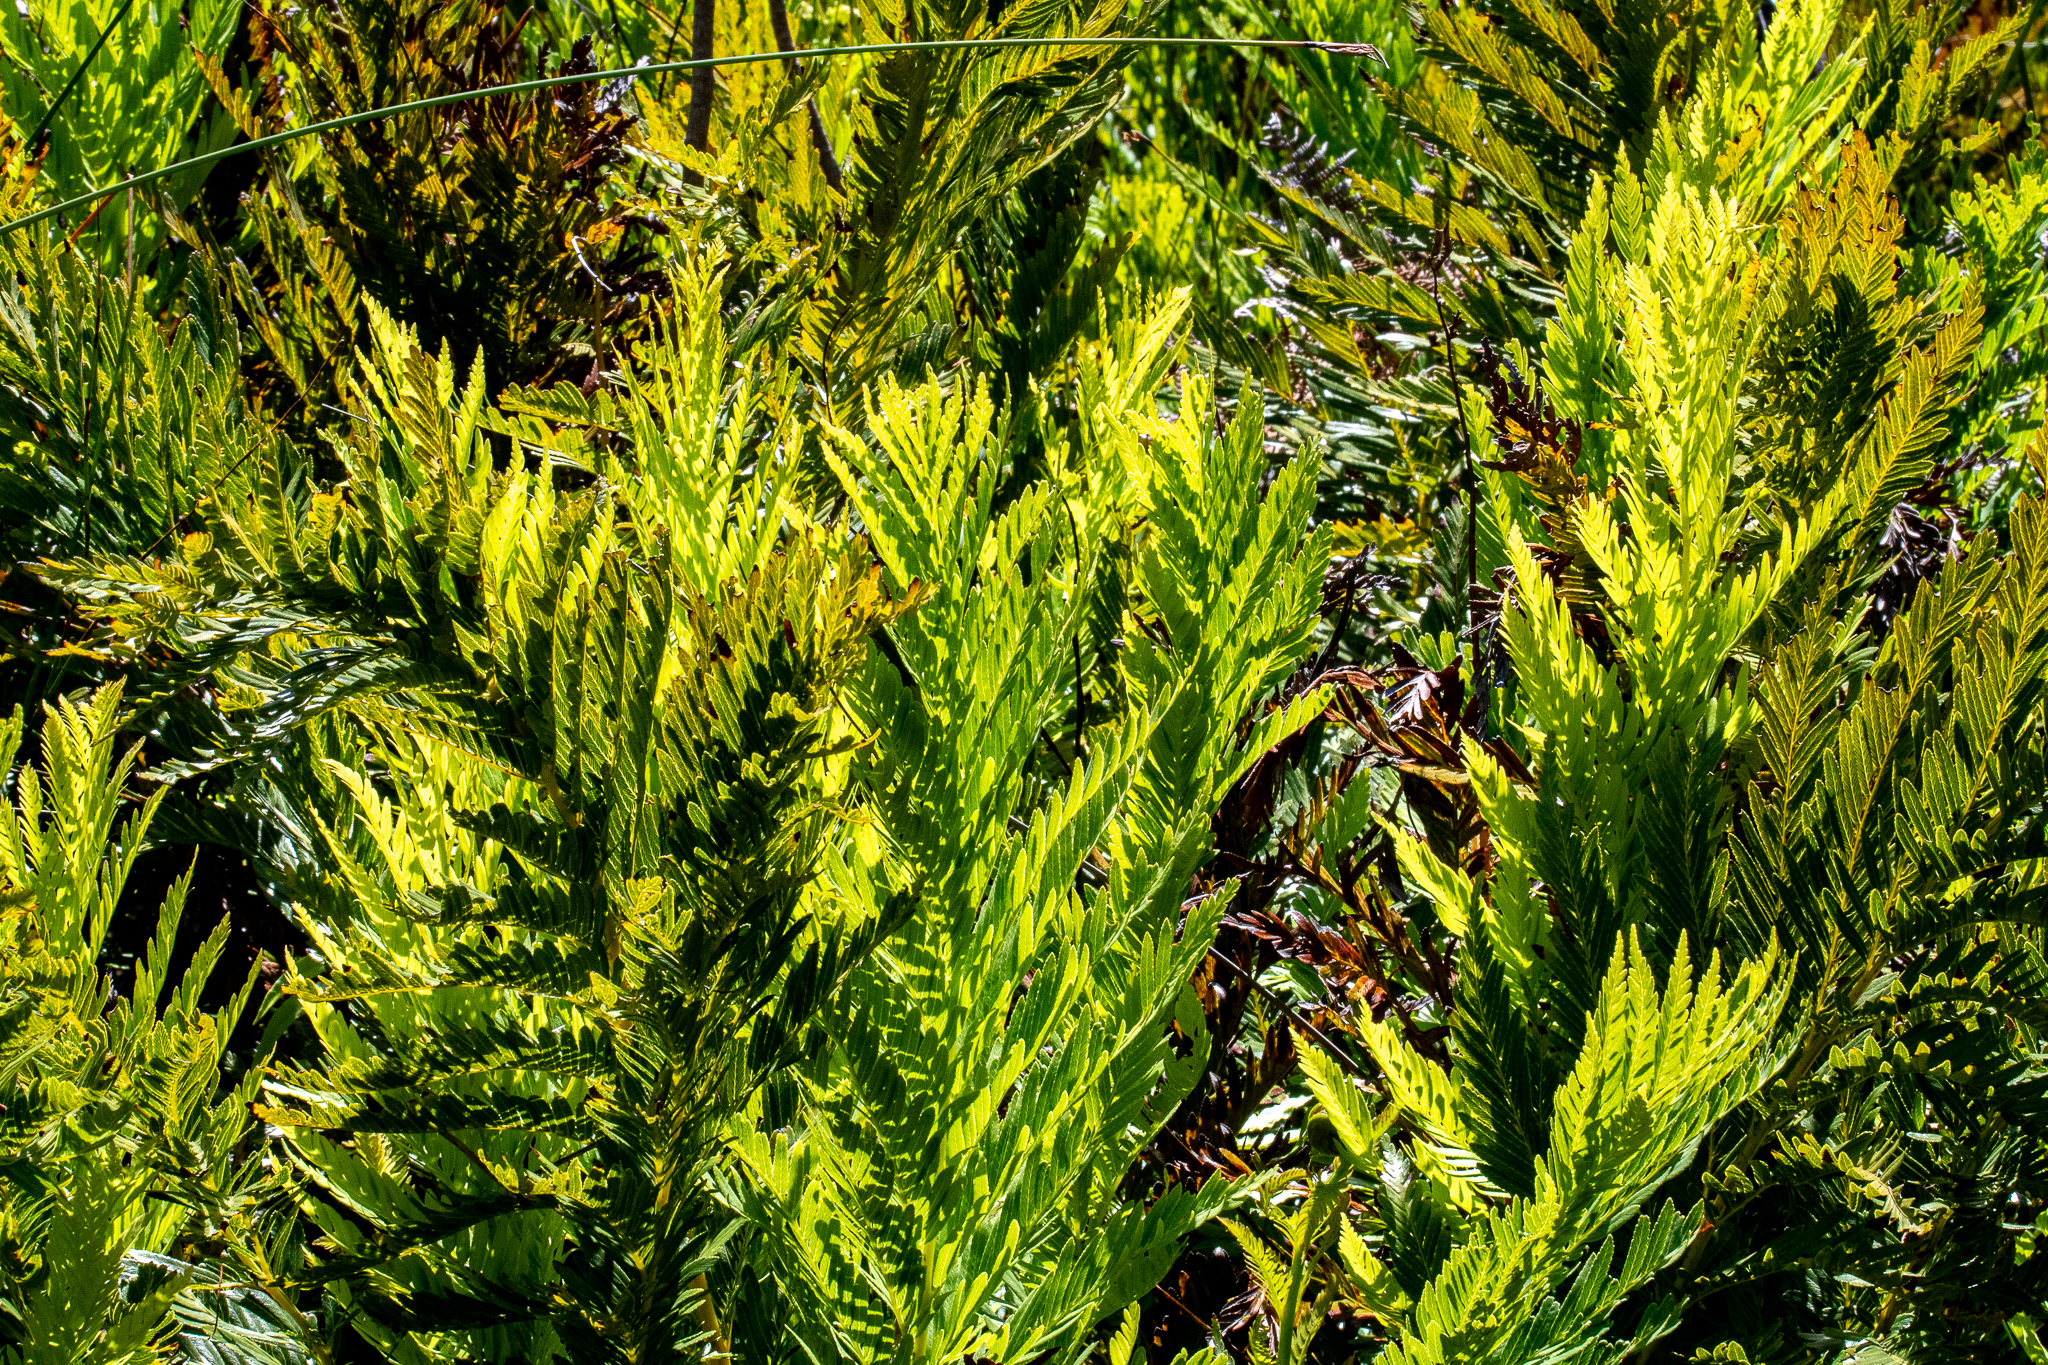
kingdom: Plantae
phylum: Tracheophyta
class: Polypodiopsida
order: Osmundales
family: Osmundaceae
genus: Todea
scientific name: Todea barbara
